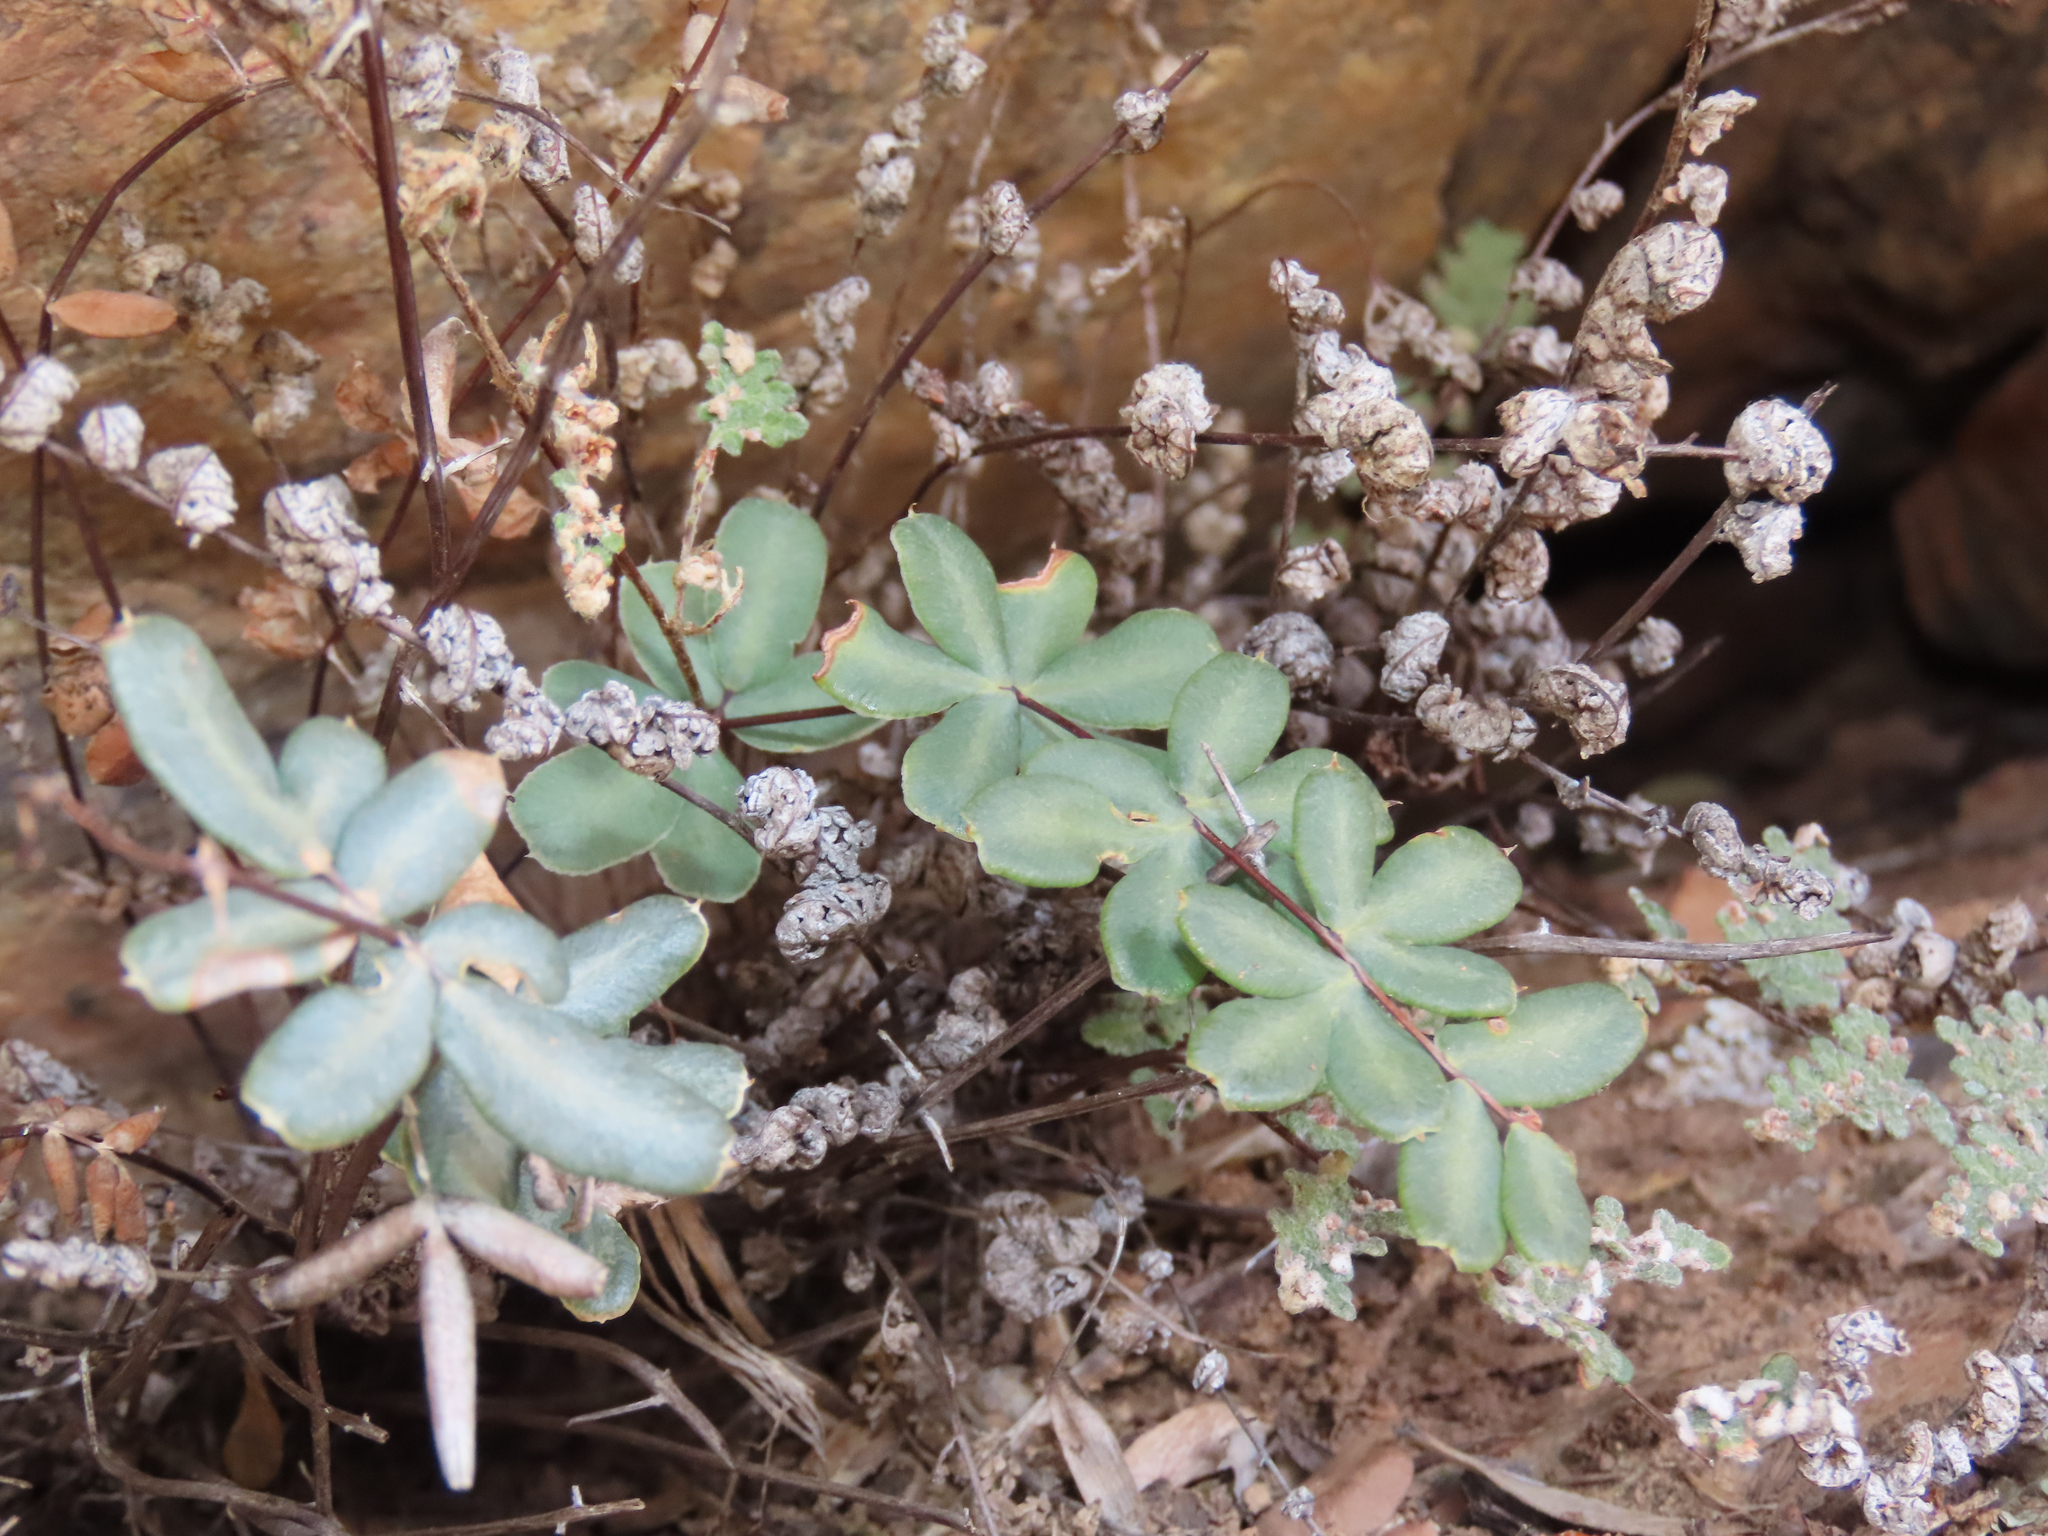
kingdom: Plantae
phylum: Tracheophyta
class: Polypodiopsida
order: Polypodiales
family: Pteridaceae
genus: Pellaea
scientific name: Pellaea wrightiana
